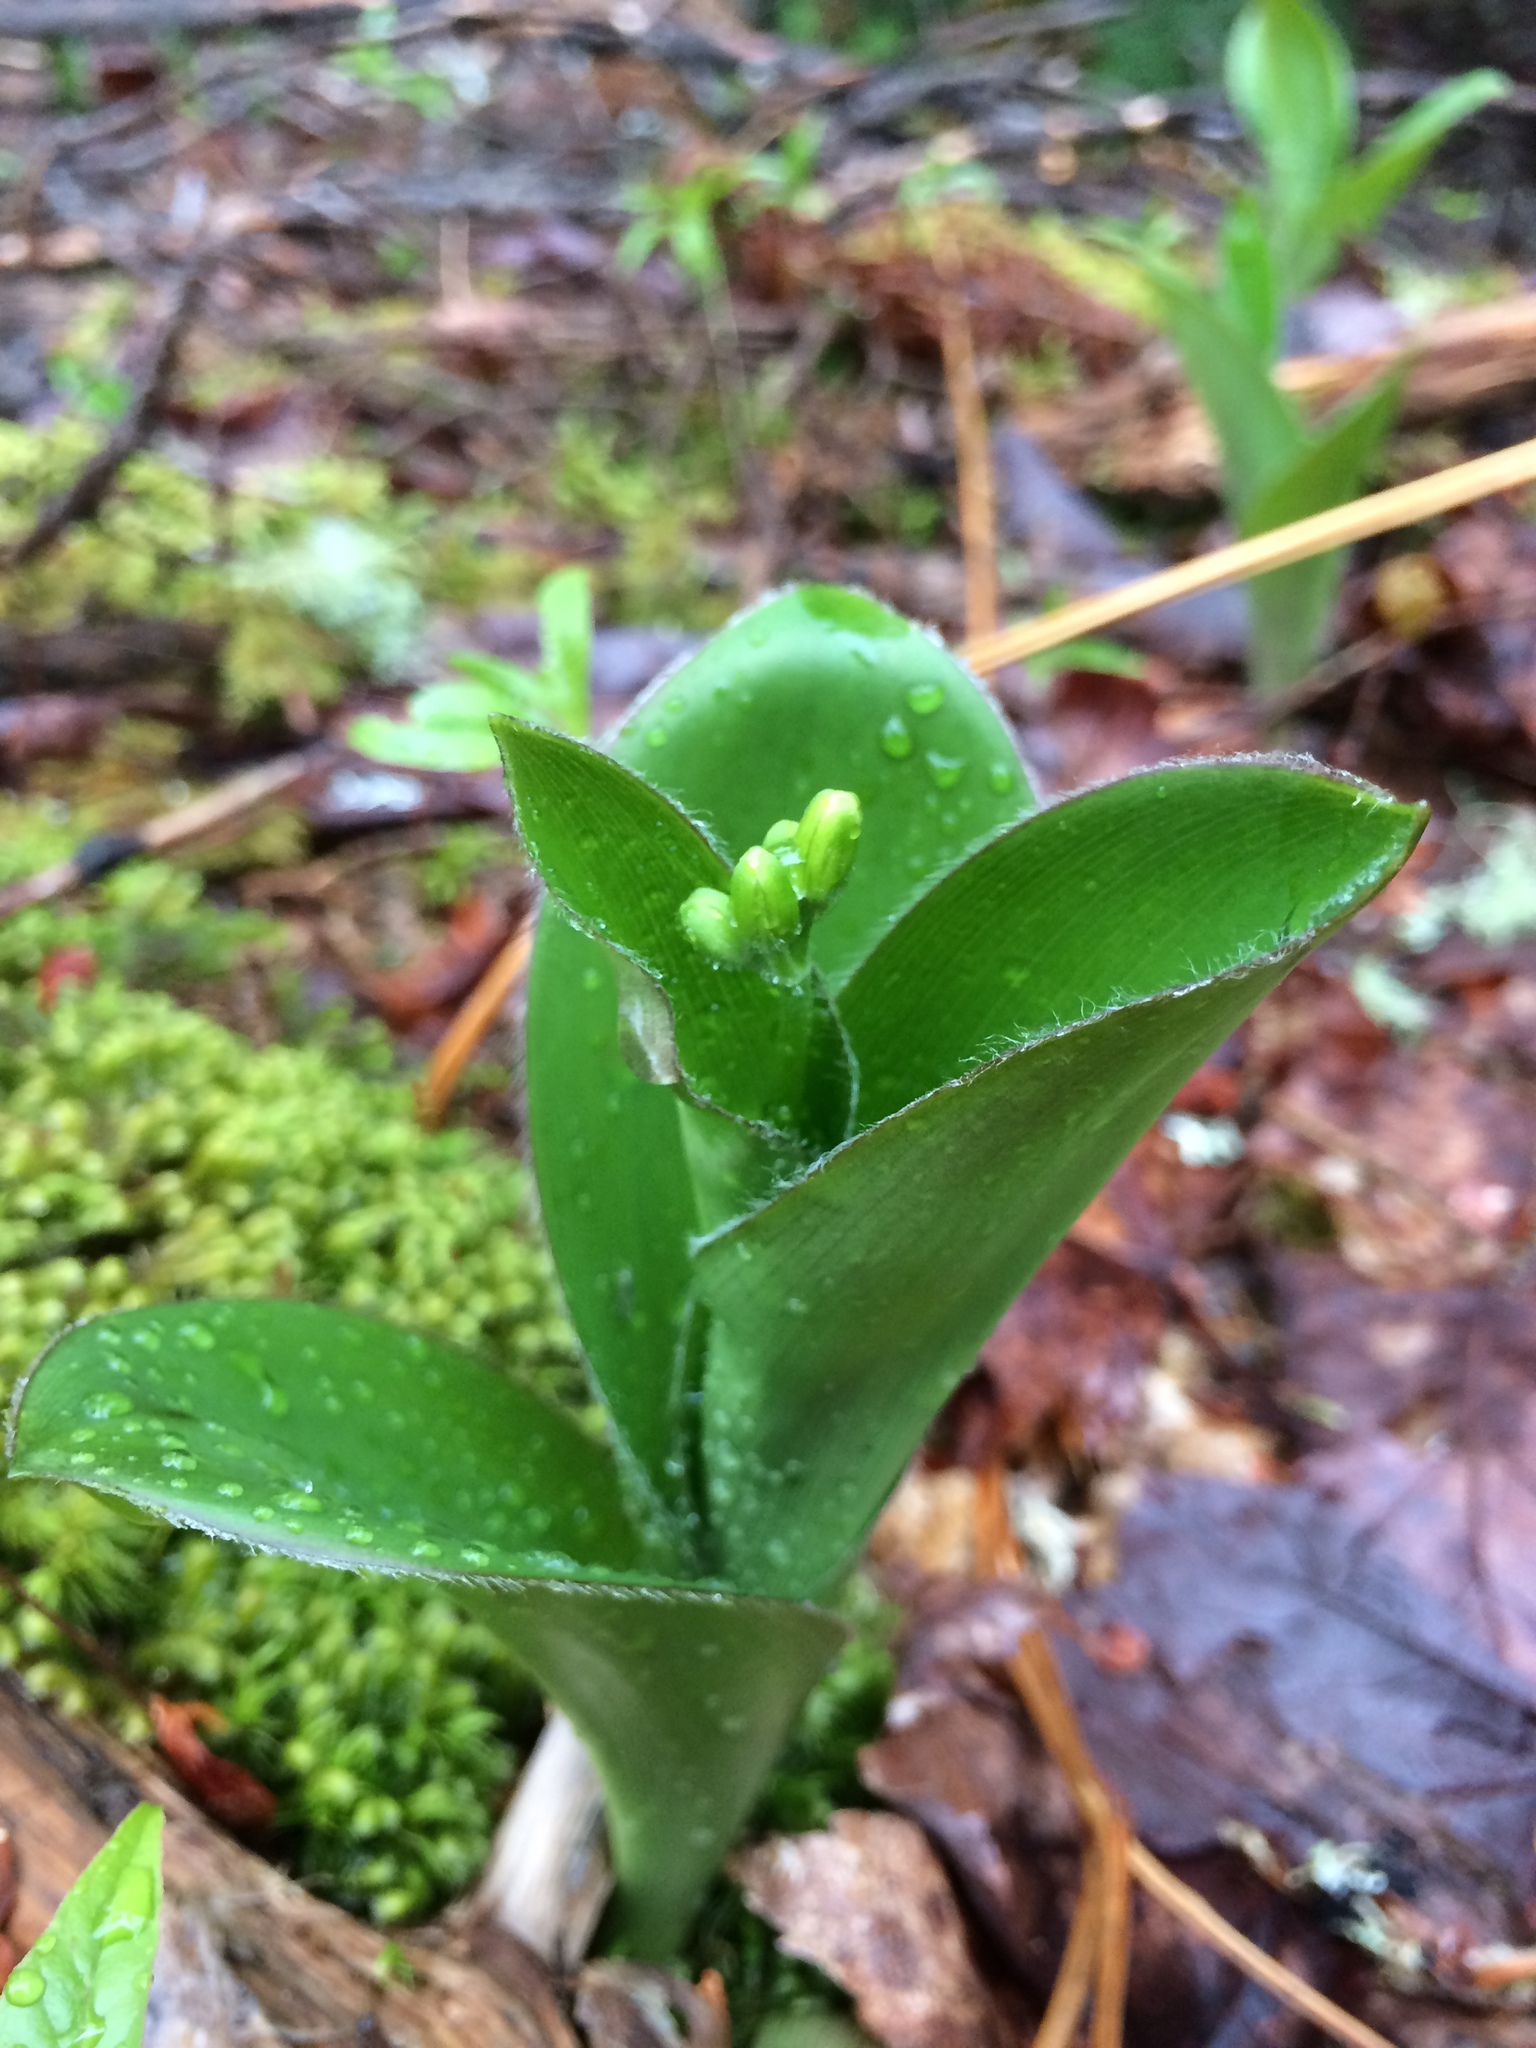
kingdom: Plantae
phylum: Tracheophyta
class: Liliopsida
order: Liliales
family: Liliaceae
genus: Clintonia
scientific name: Clintonia borealis
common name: Yellow clintonia
